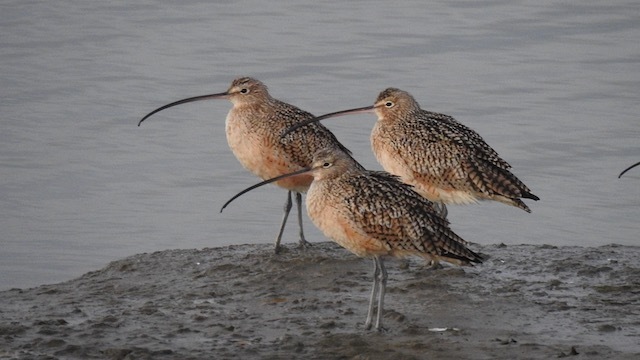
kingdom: Animalia
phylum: Chordata
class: Aves
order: Charadriiformes
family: Scolopacidae
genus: Numenius
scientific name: Numenius americanus
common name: Long-billed curlew
